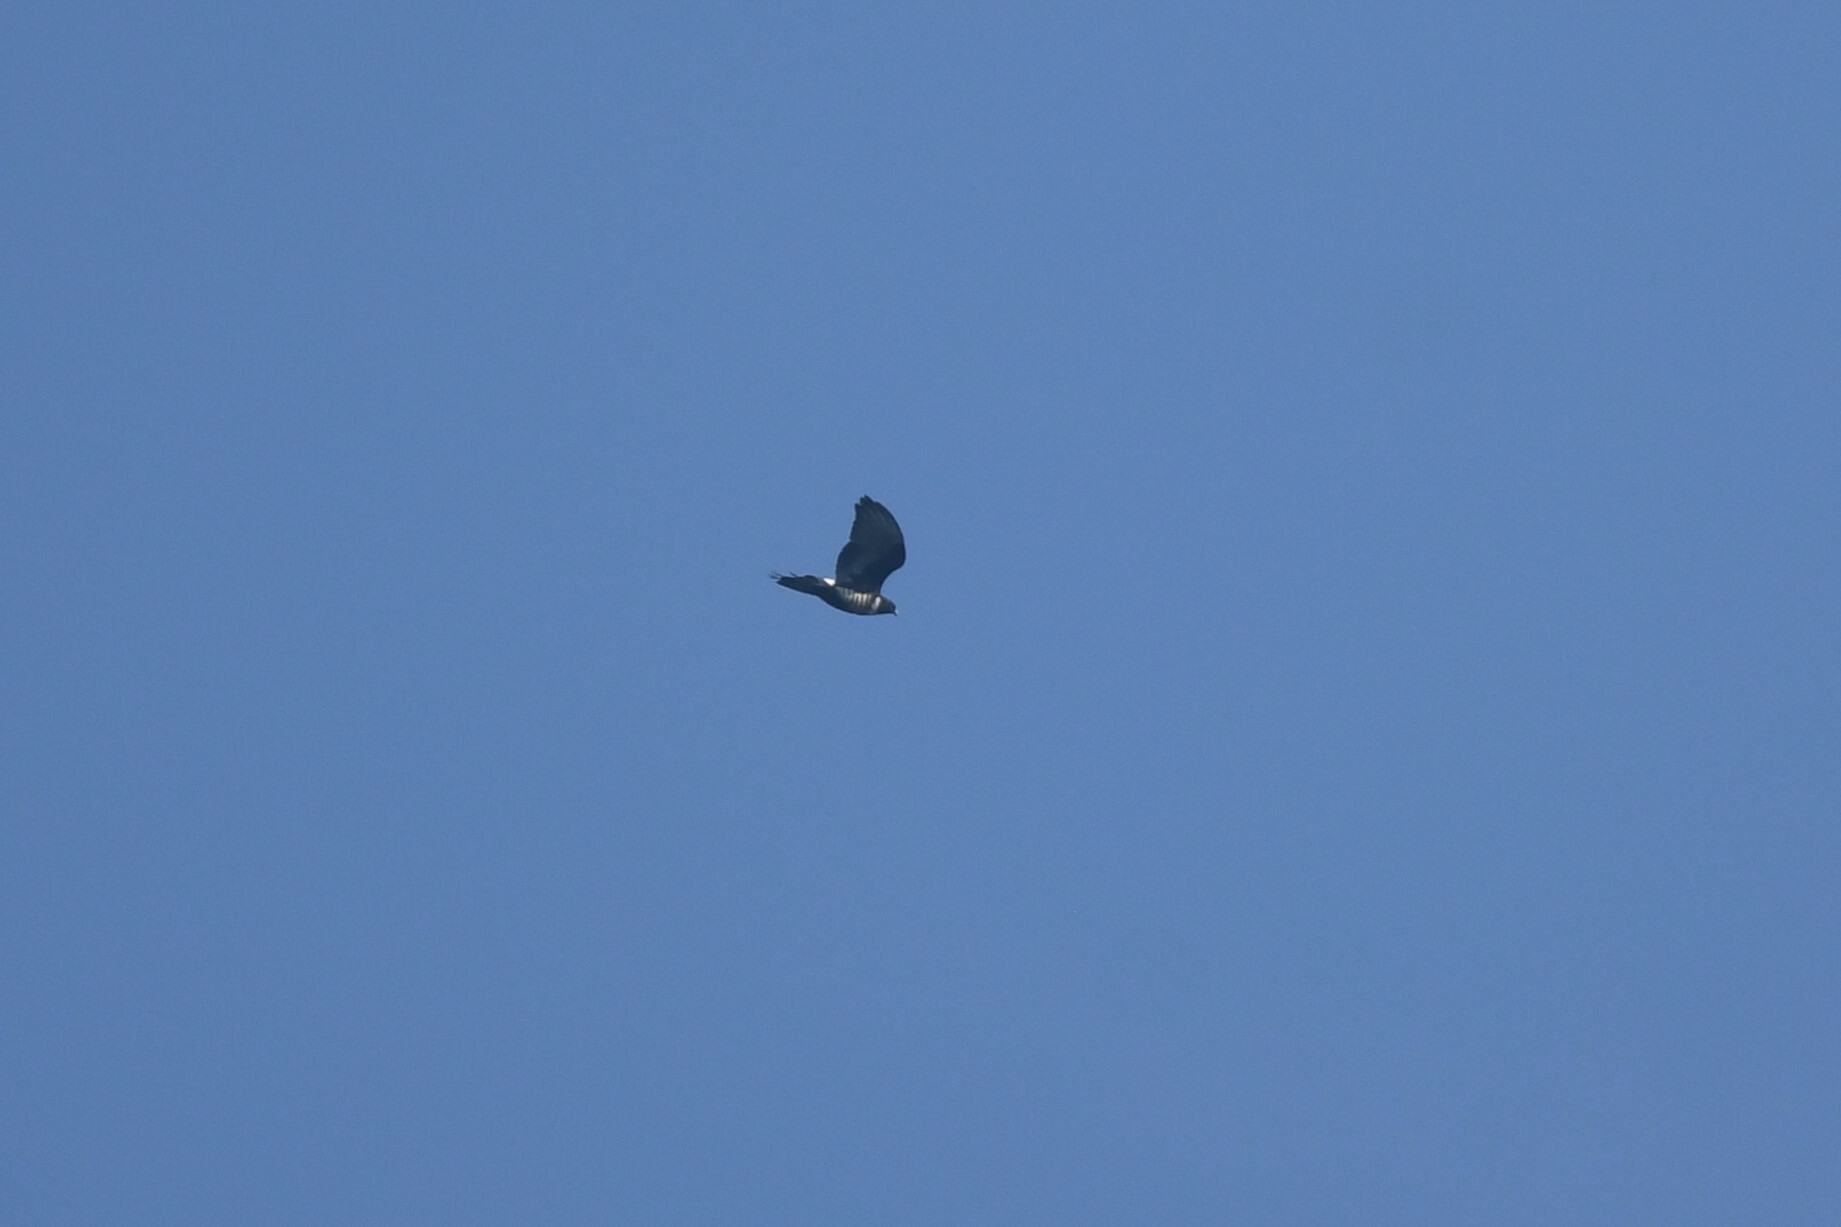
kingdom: Animalia
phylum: Chordata
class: Aves
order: Accipitriformes
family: Accipitridae
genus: Aviceda
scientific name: Aviceda leuphotes
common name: Black baza
